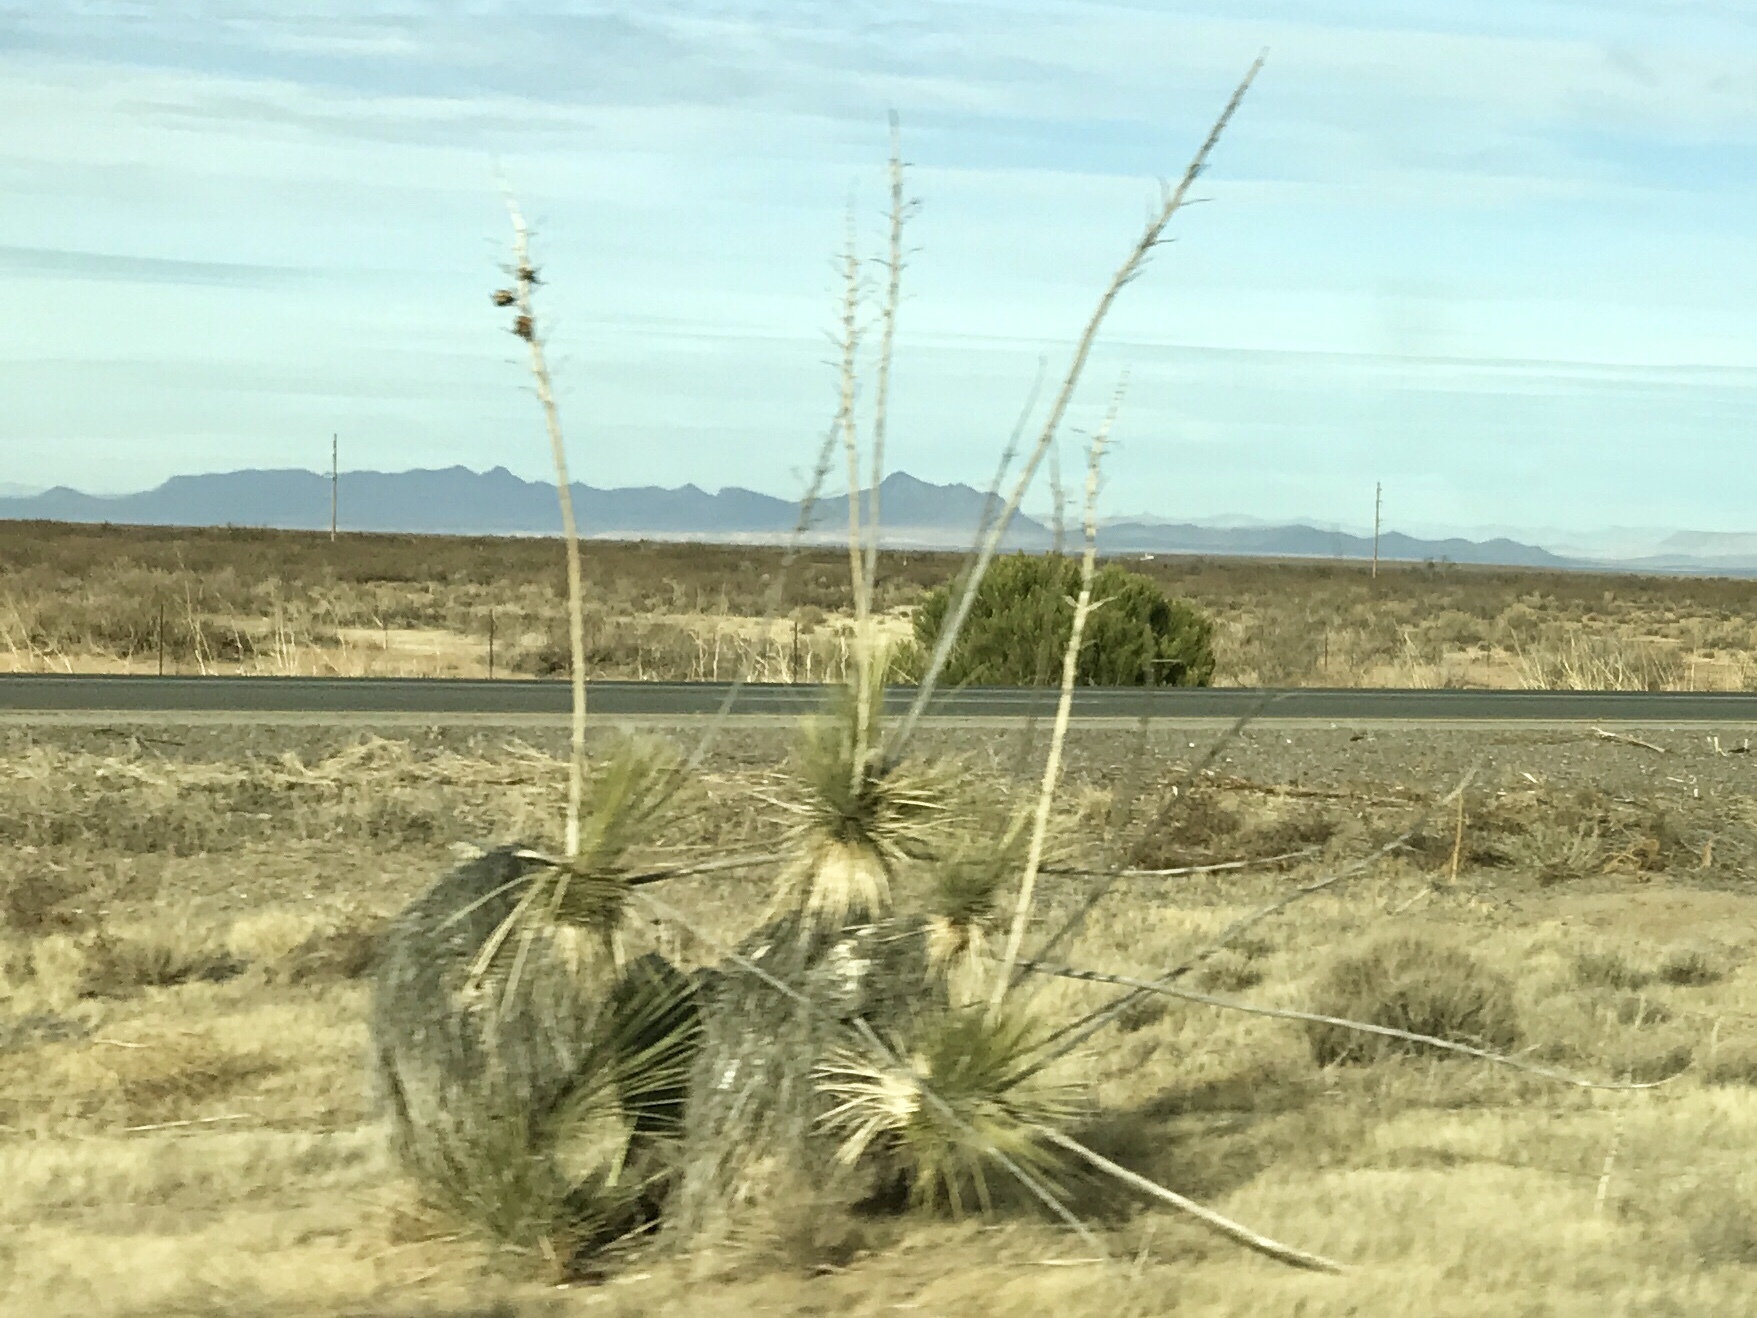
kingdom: Plantae
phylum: Tracheophyta
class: Liliopsida
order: Asparagales
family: Asparagaceae
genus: Yucca
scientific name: Yucca elata
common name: Palmella
